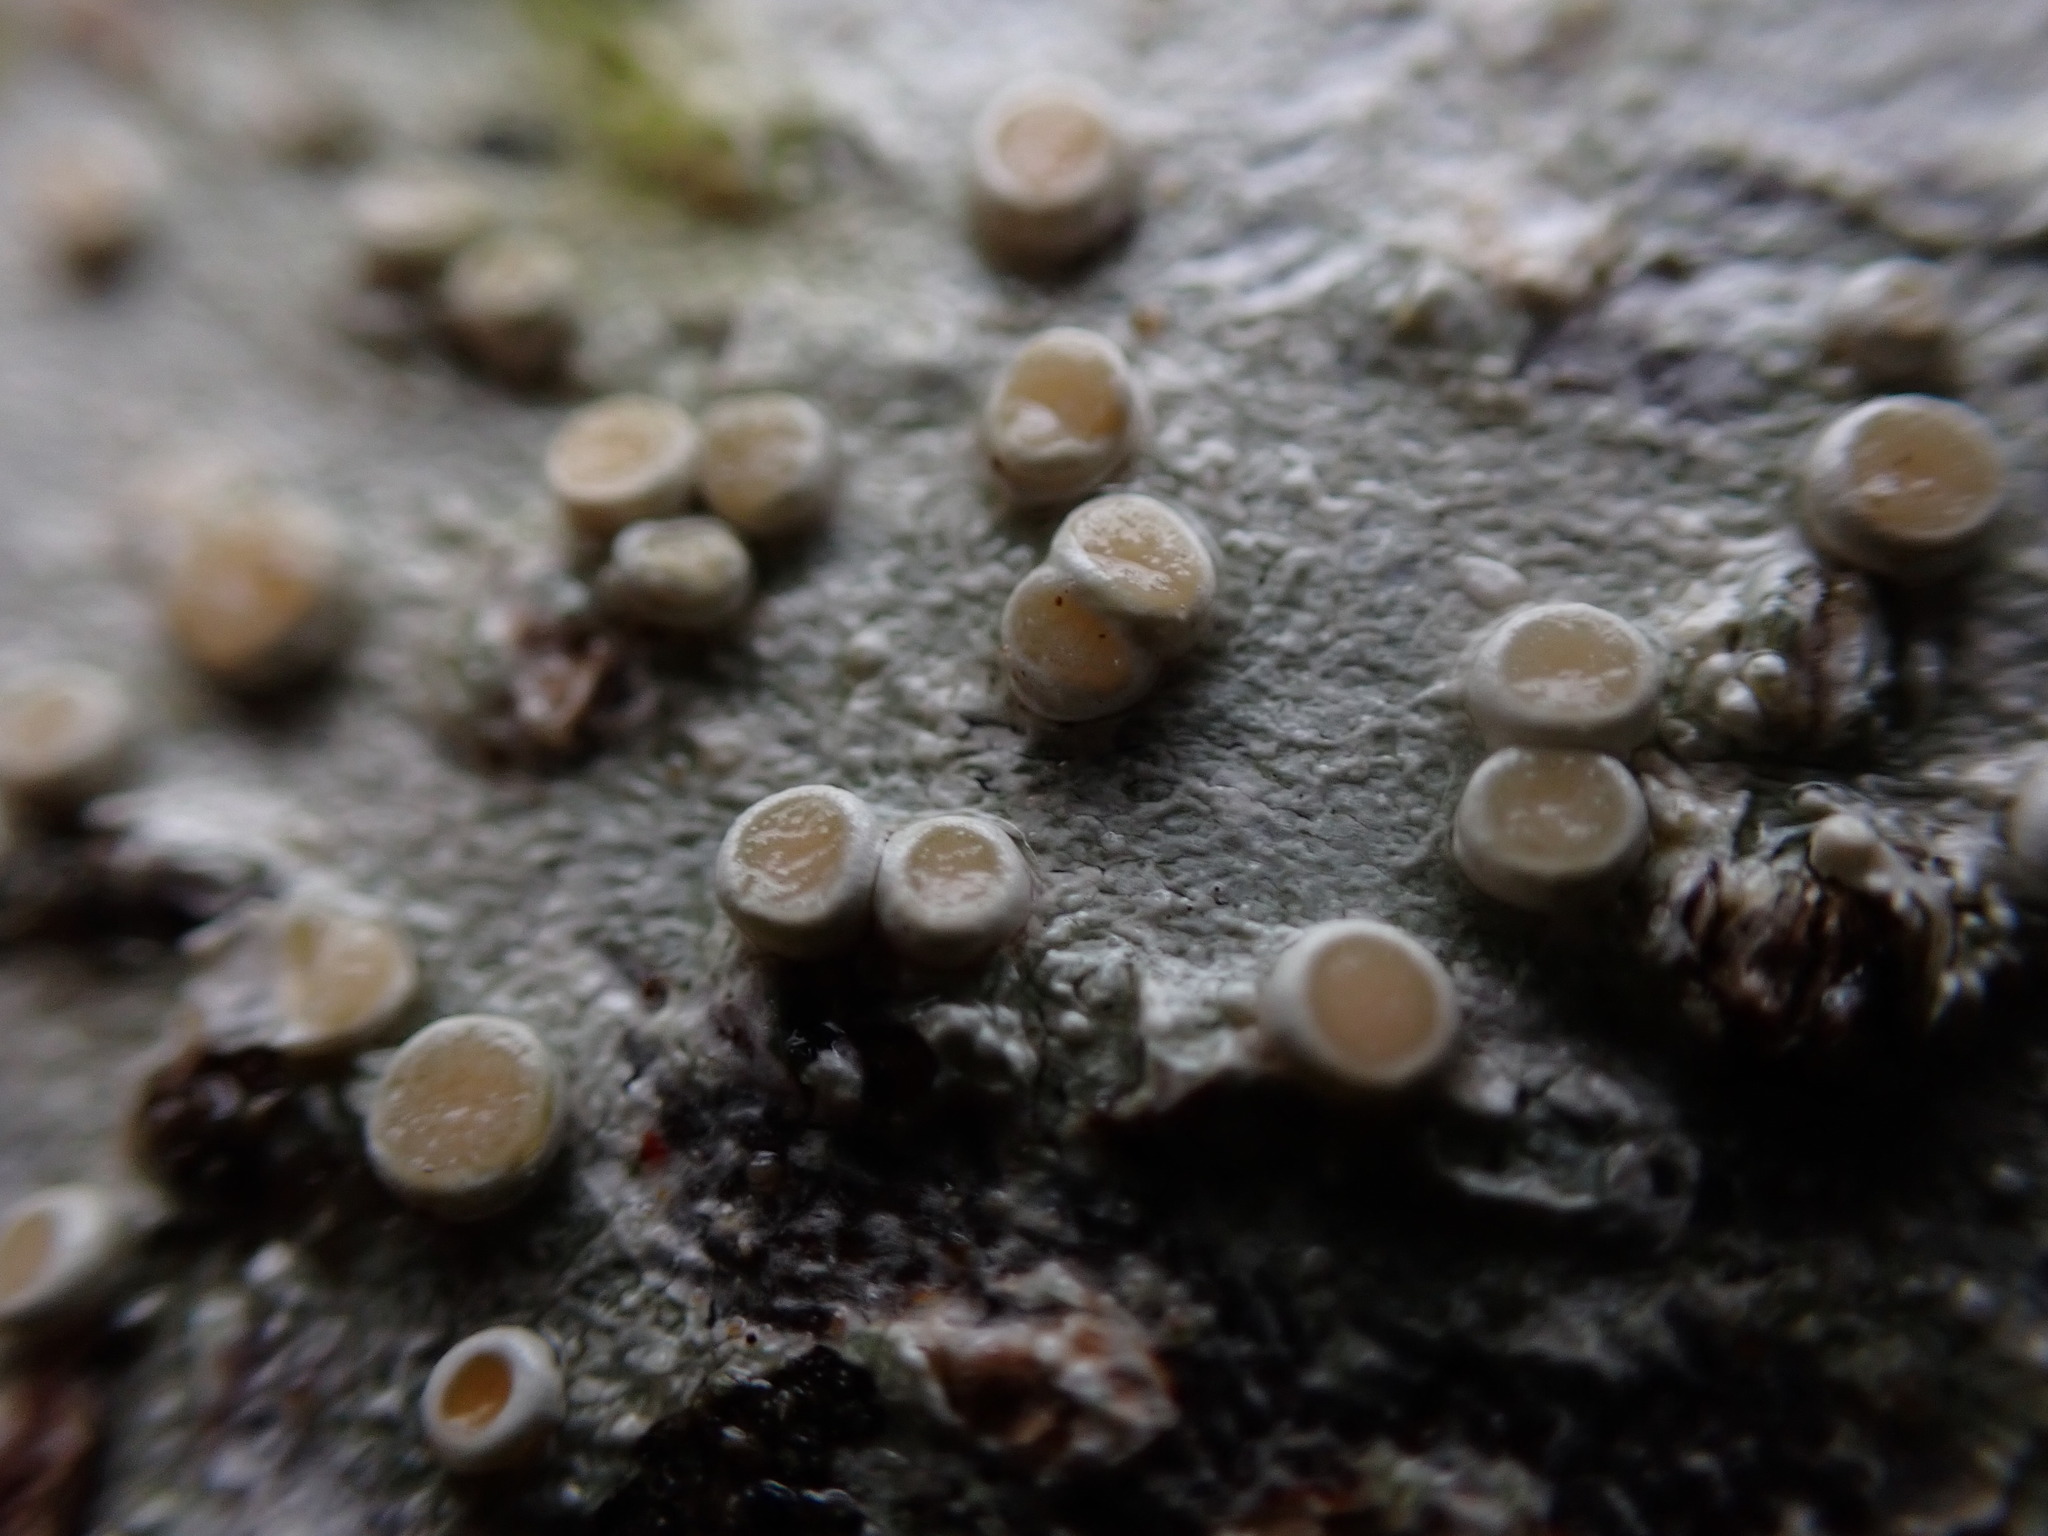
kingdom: Fungi
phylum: Ascomycota
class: Lecanoromycetes
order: Pertusariales
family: Ochrolechiaceae
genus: Ochrolechia
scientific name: Ochrolechia laevigata
